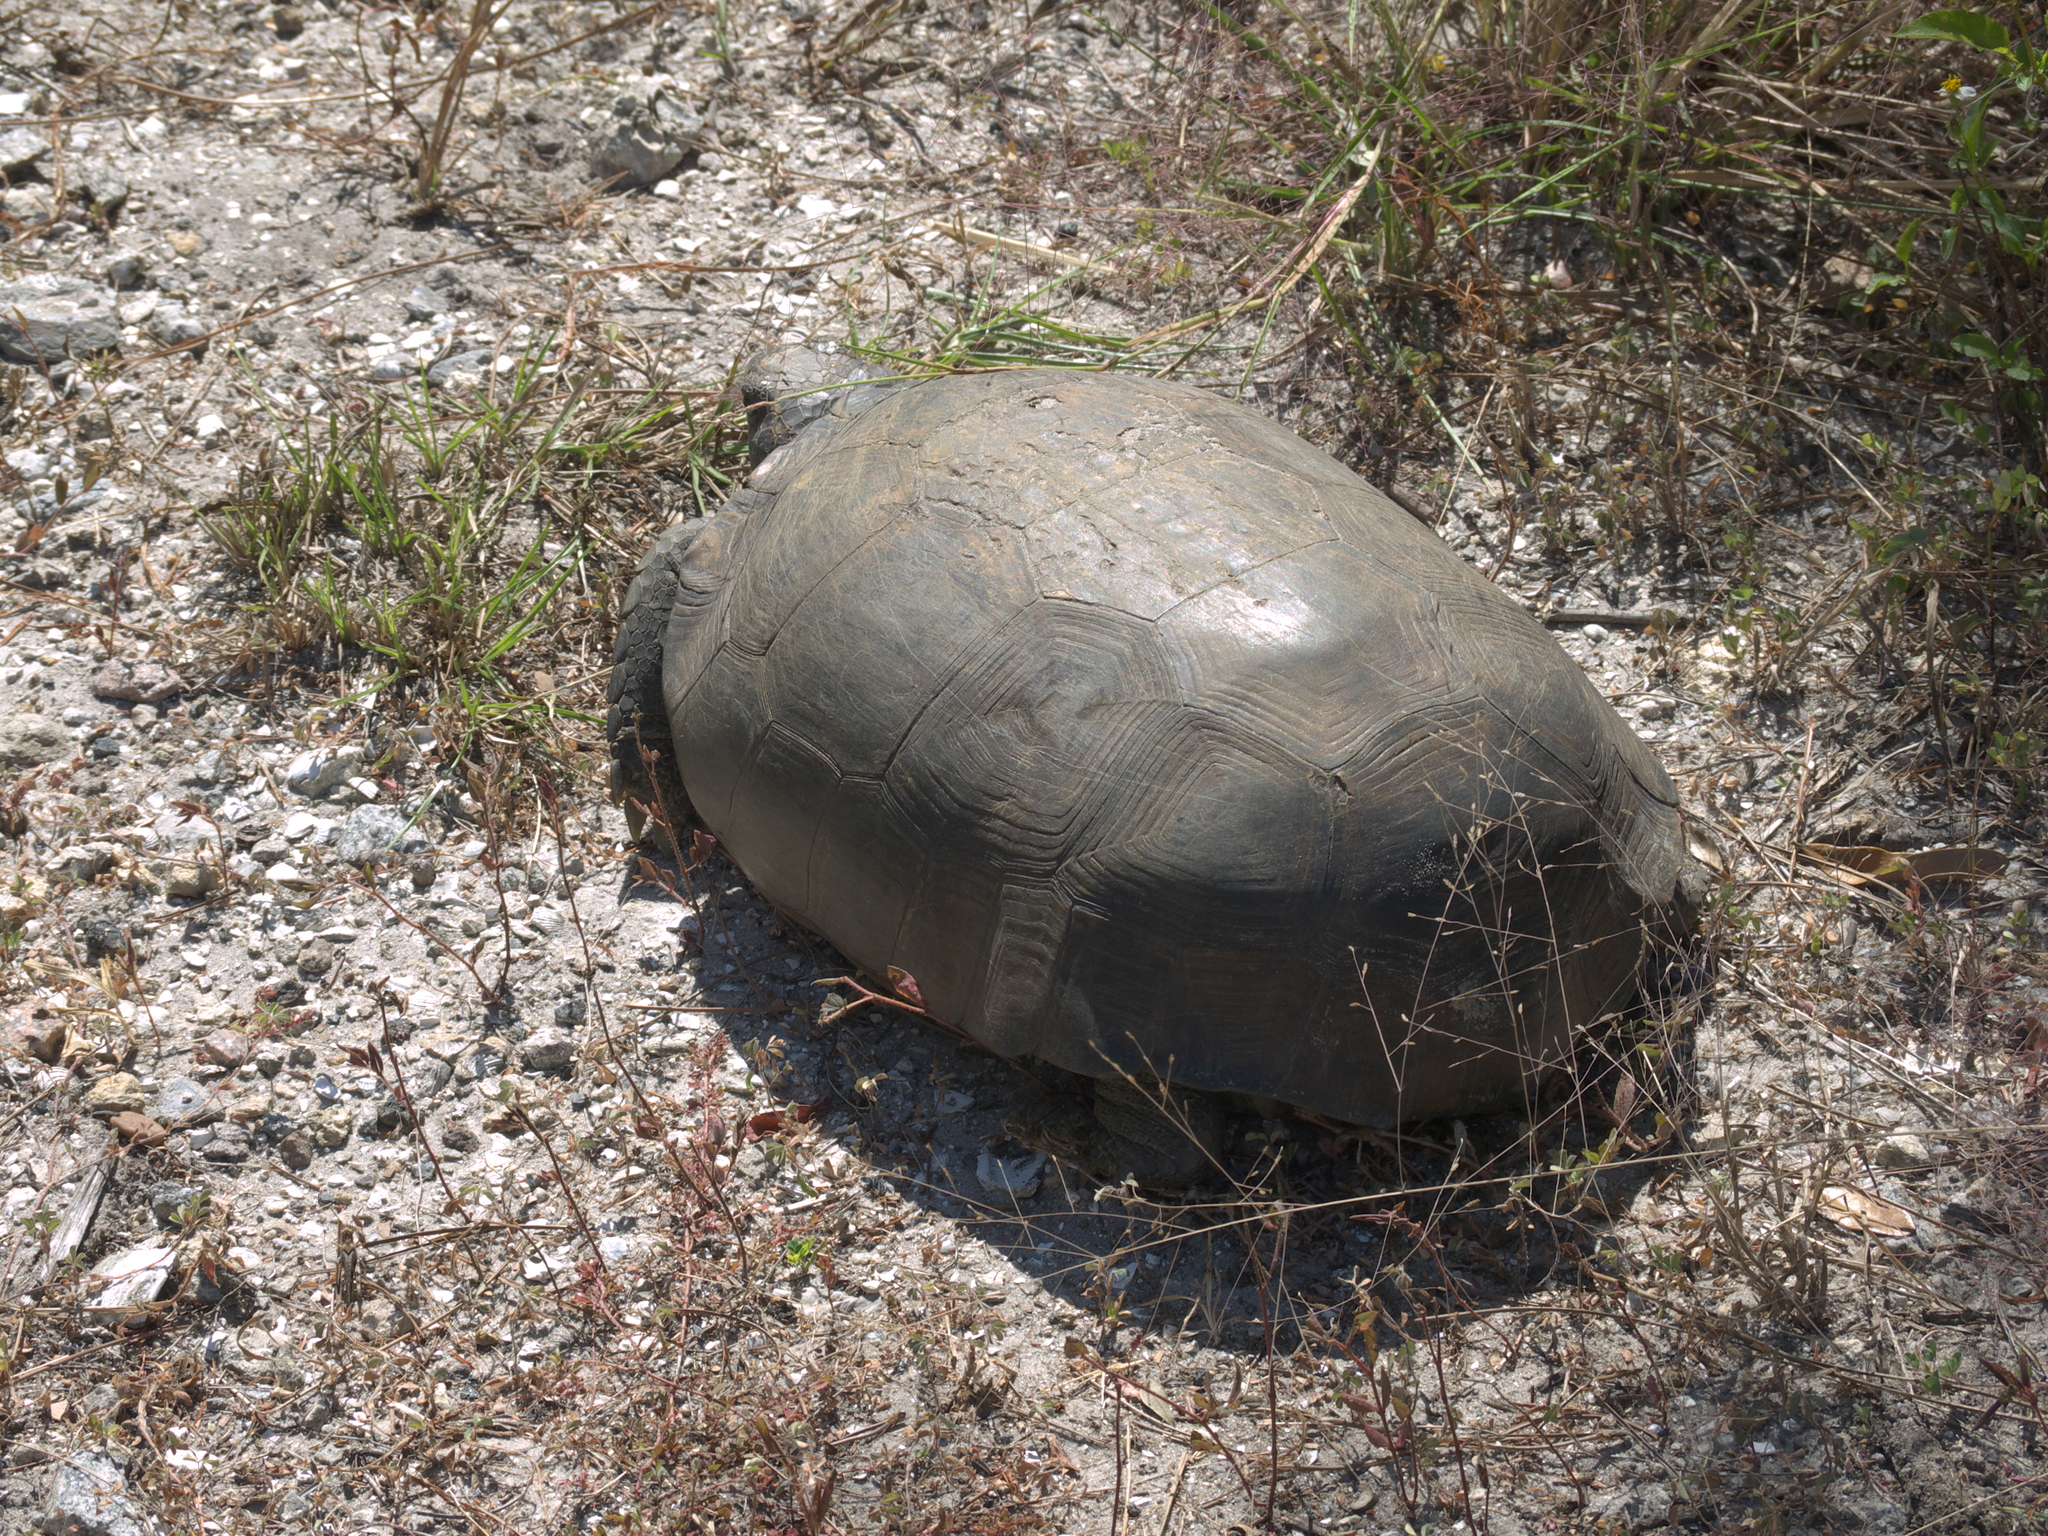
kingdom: Animalia
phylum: Chordata
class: Testudines
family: Testudinidae
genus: Gopherus
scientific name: Gopherus polyphemus
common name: Florida gopher tortoise
